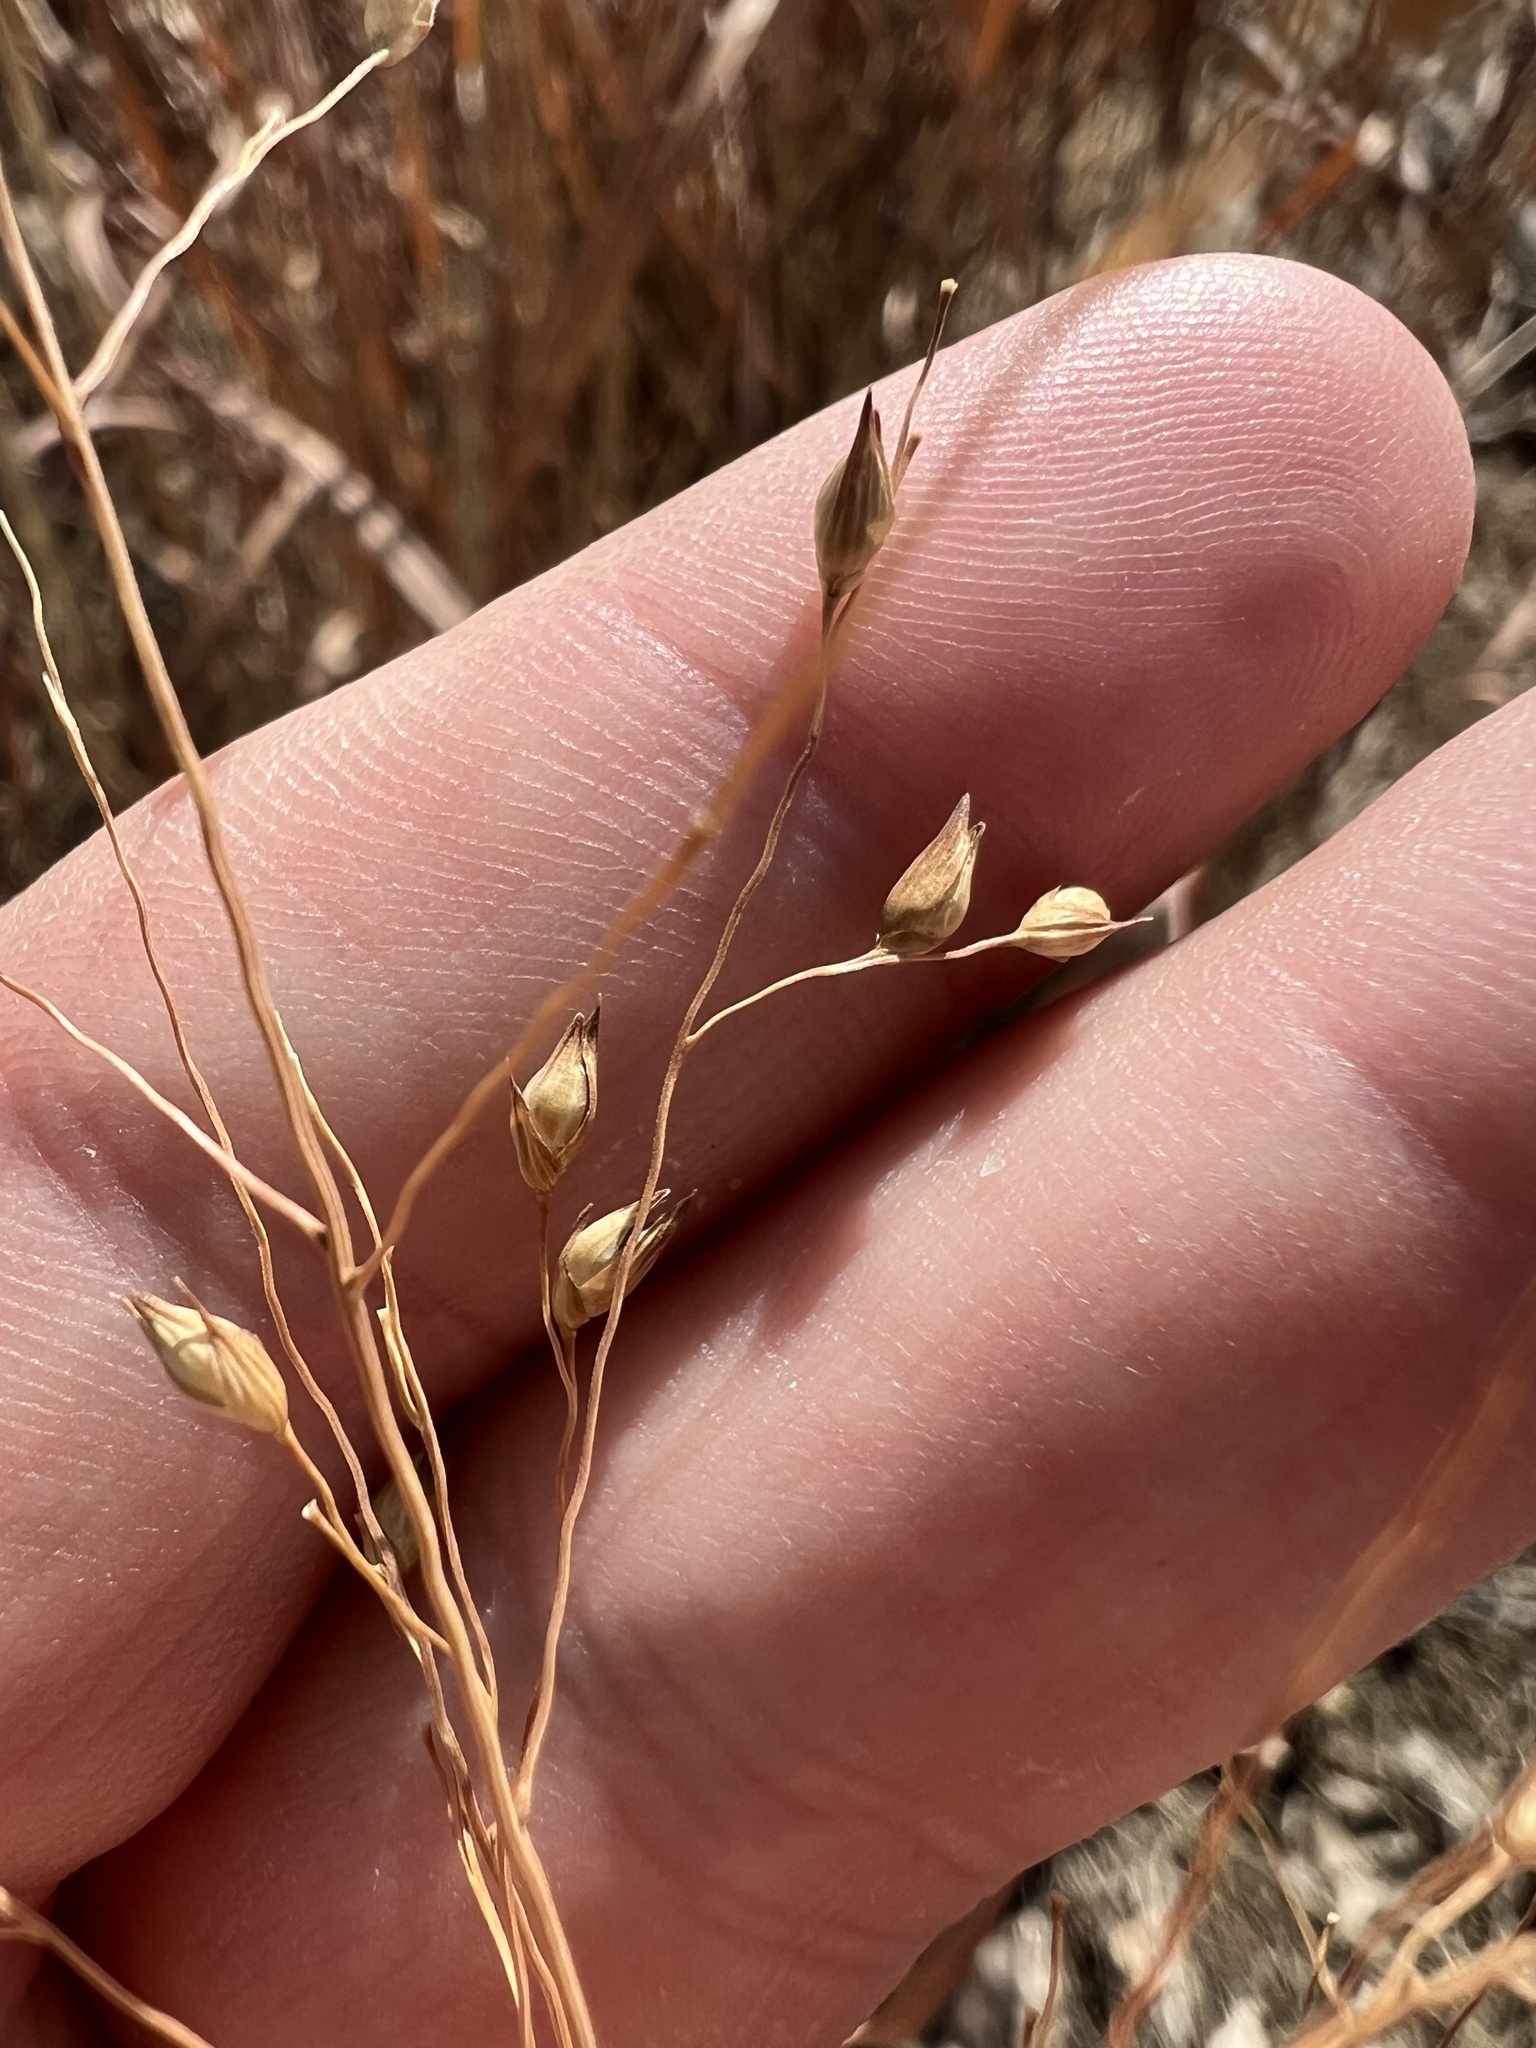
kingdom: Plantae
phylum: Tracheophyta
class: Liliopsida
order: Poales
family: Poaceae
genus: Panicum
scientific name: Panicum virgatum
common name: Switchgrass
